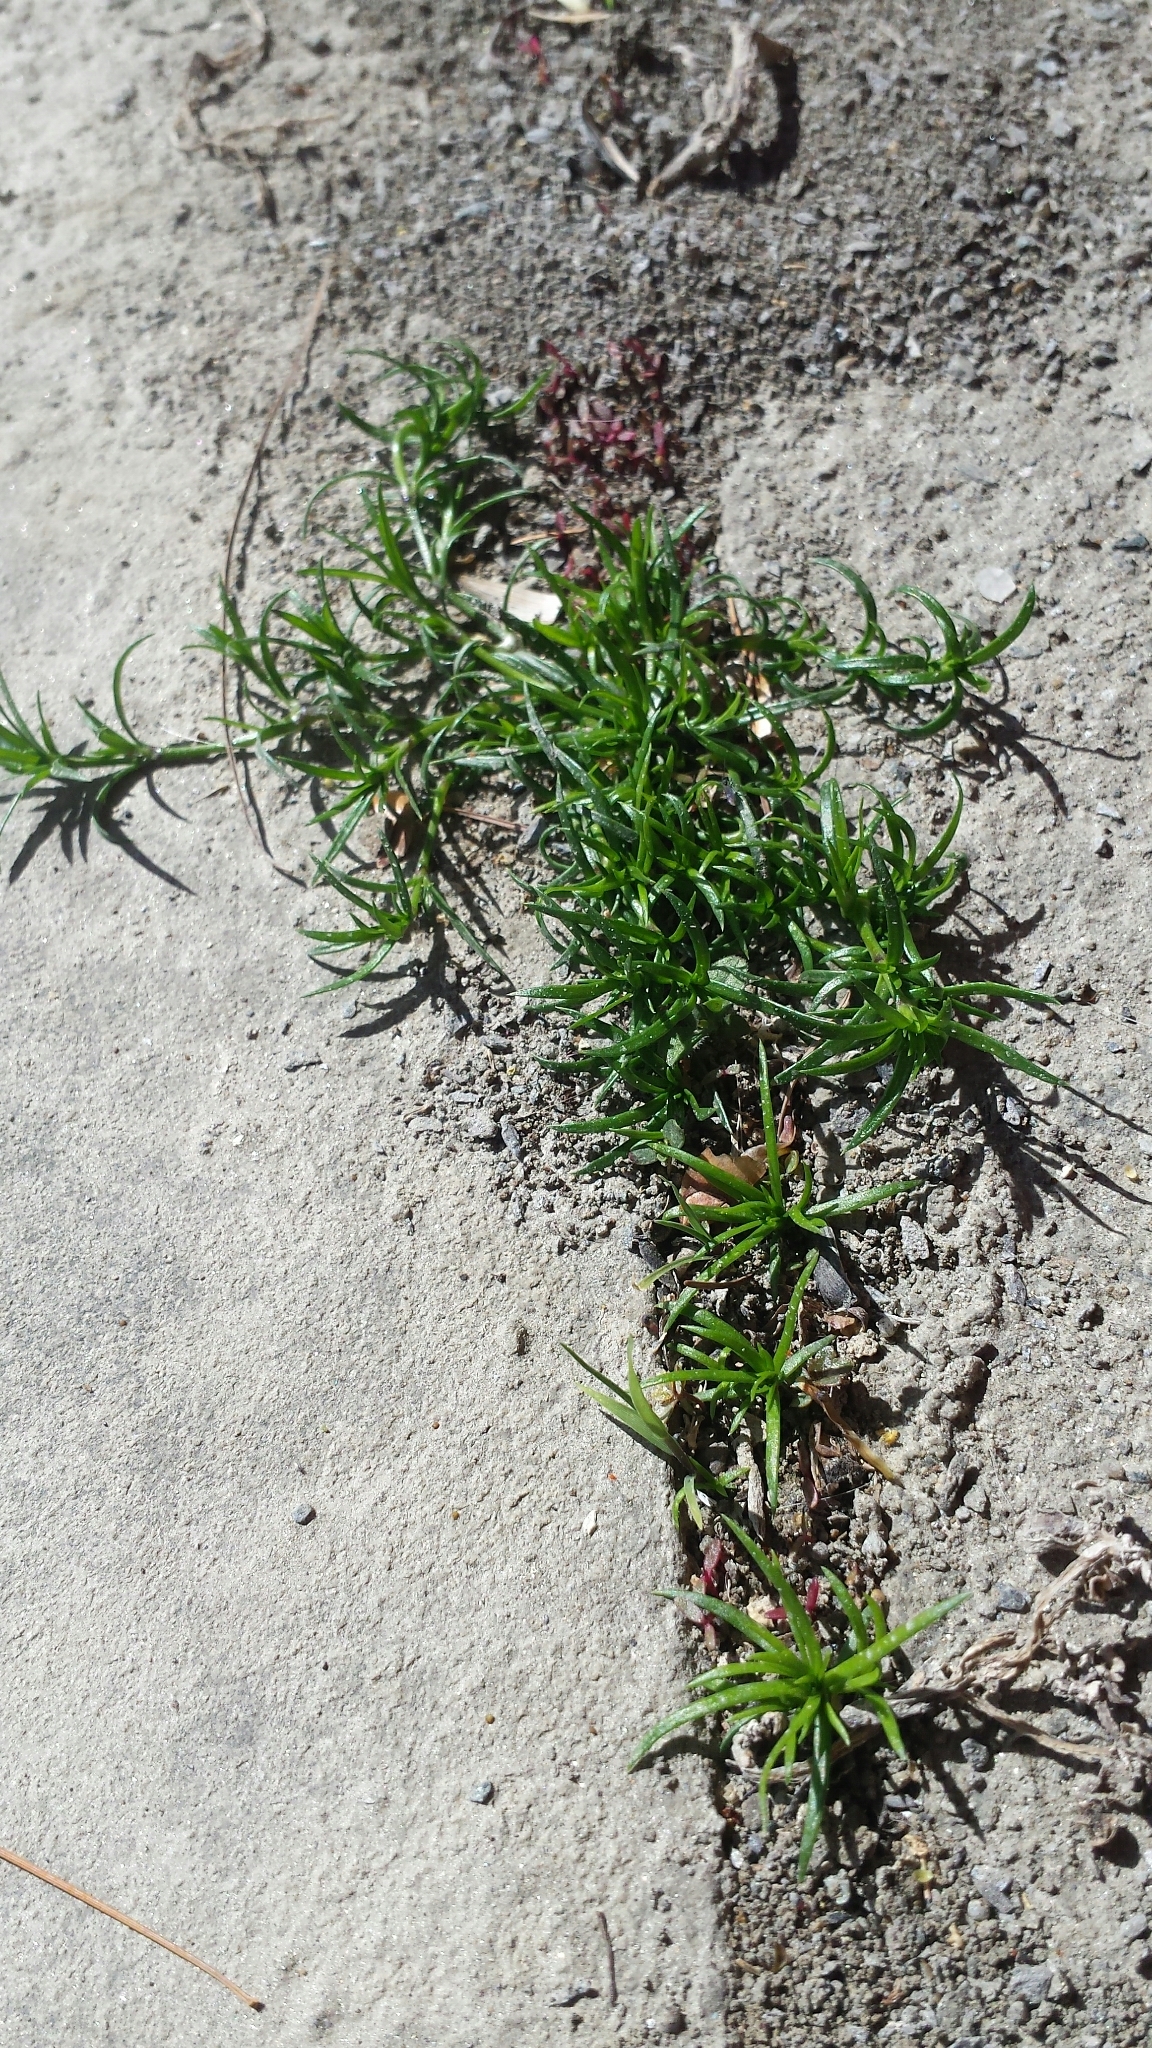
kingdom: Plantae
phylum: Tracheophyta
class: Magnoliopsida
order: Caryophyllales
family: Caryophyllaceae
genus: Sagina
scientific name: Sagina procumbens
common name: Procumbent pearlwort
